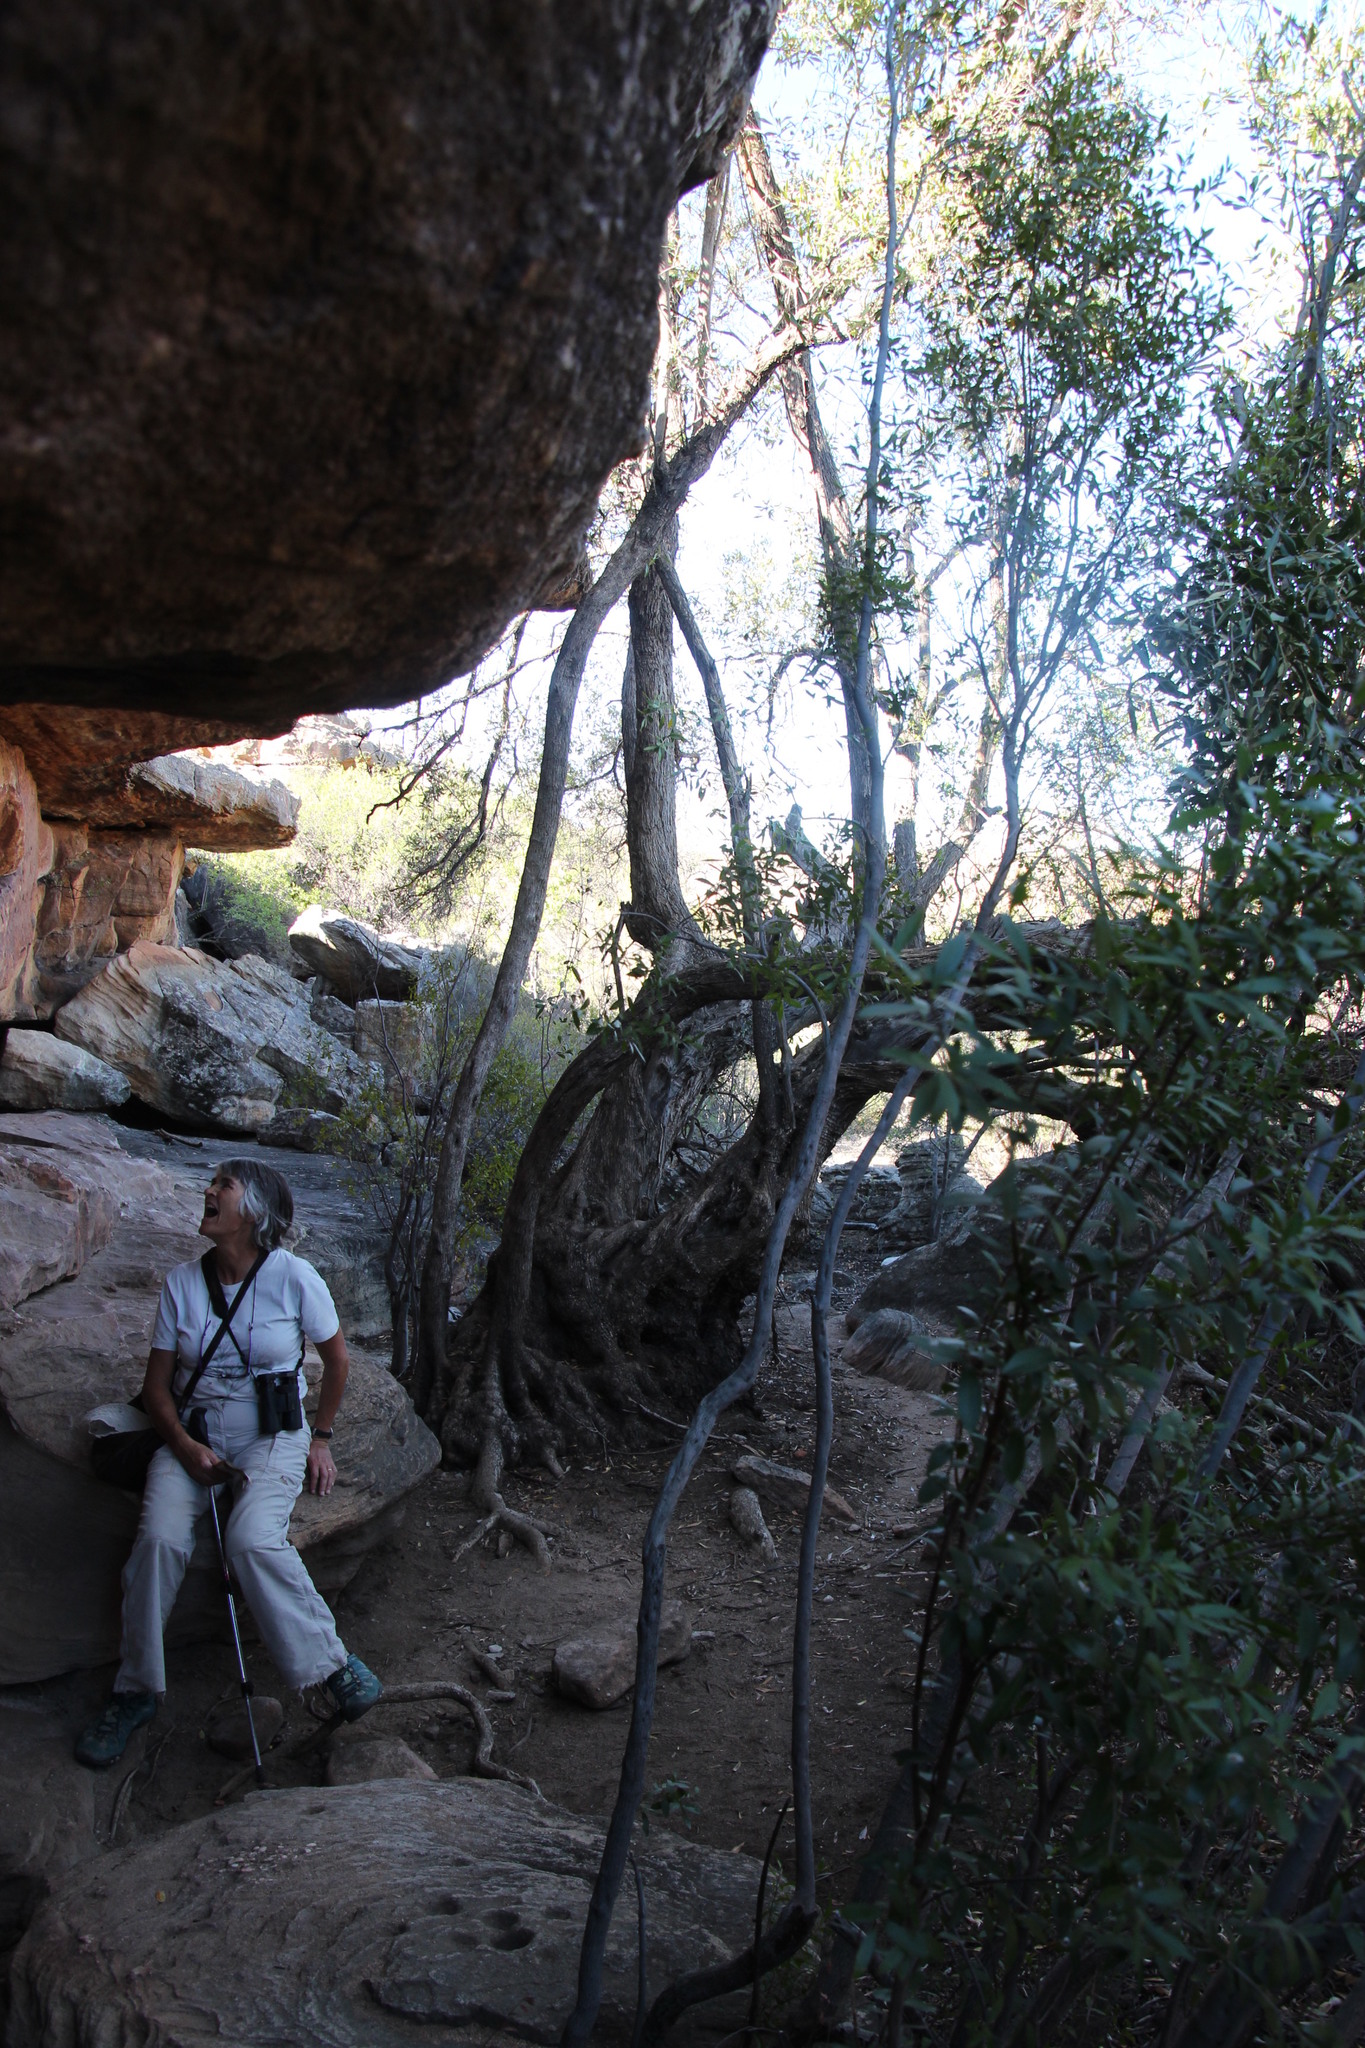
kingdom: Plantae
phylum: Tracheophyta
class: Magnoliopsida
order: Lamiales
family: Oleaceae
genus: Olea
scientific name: Olea europaea
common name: Olive
